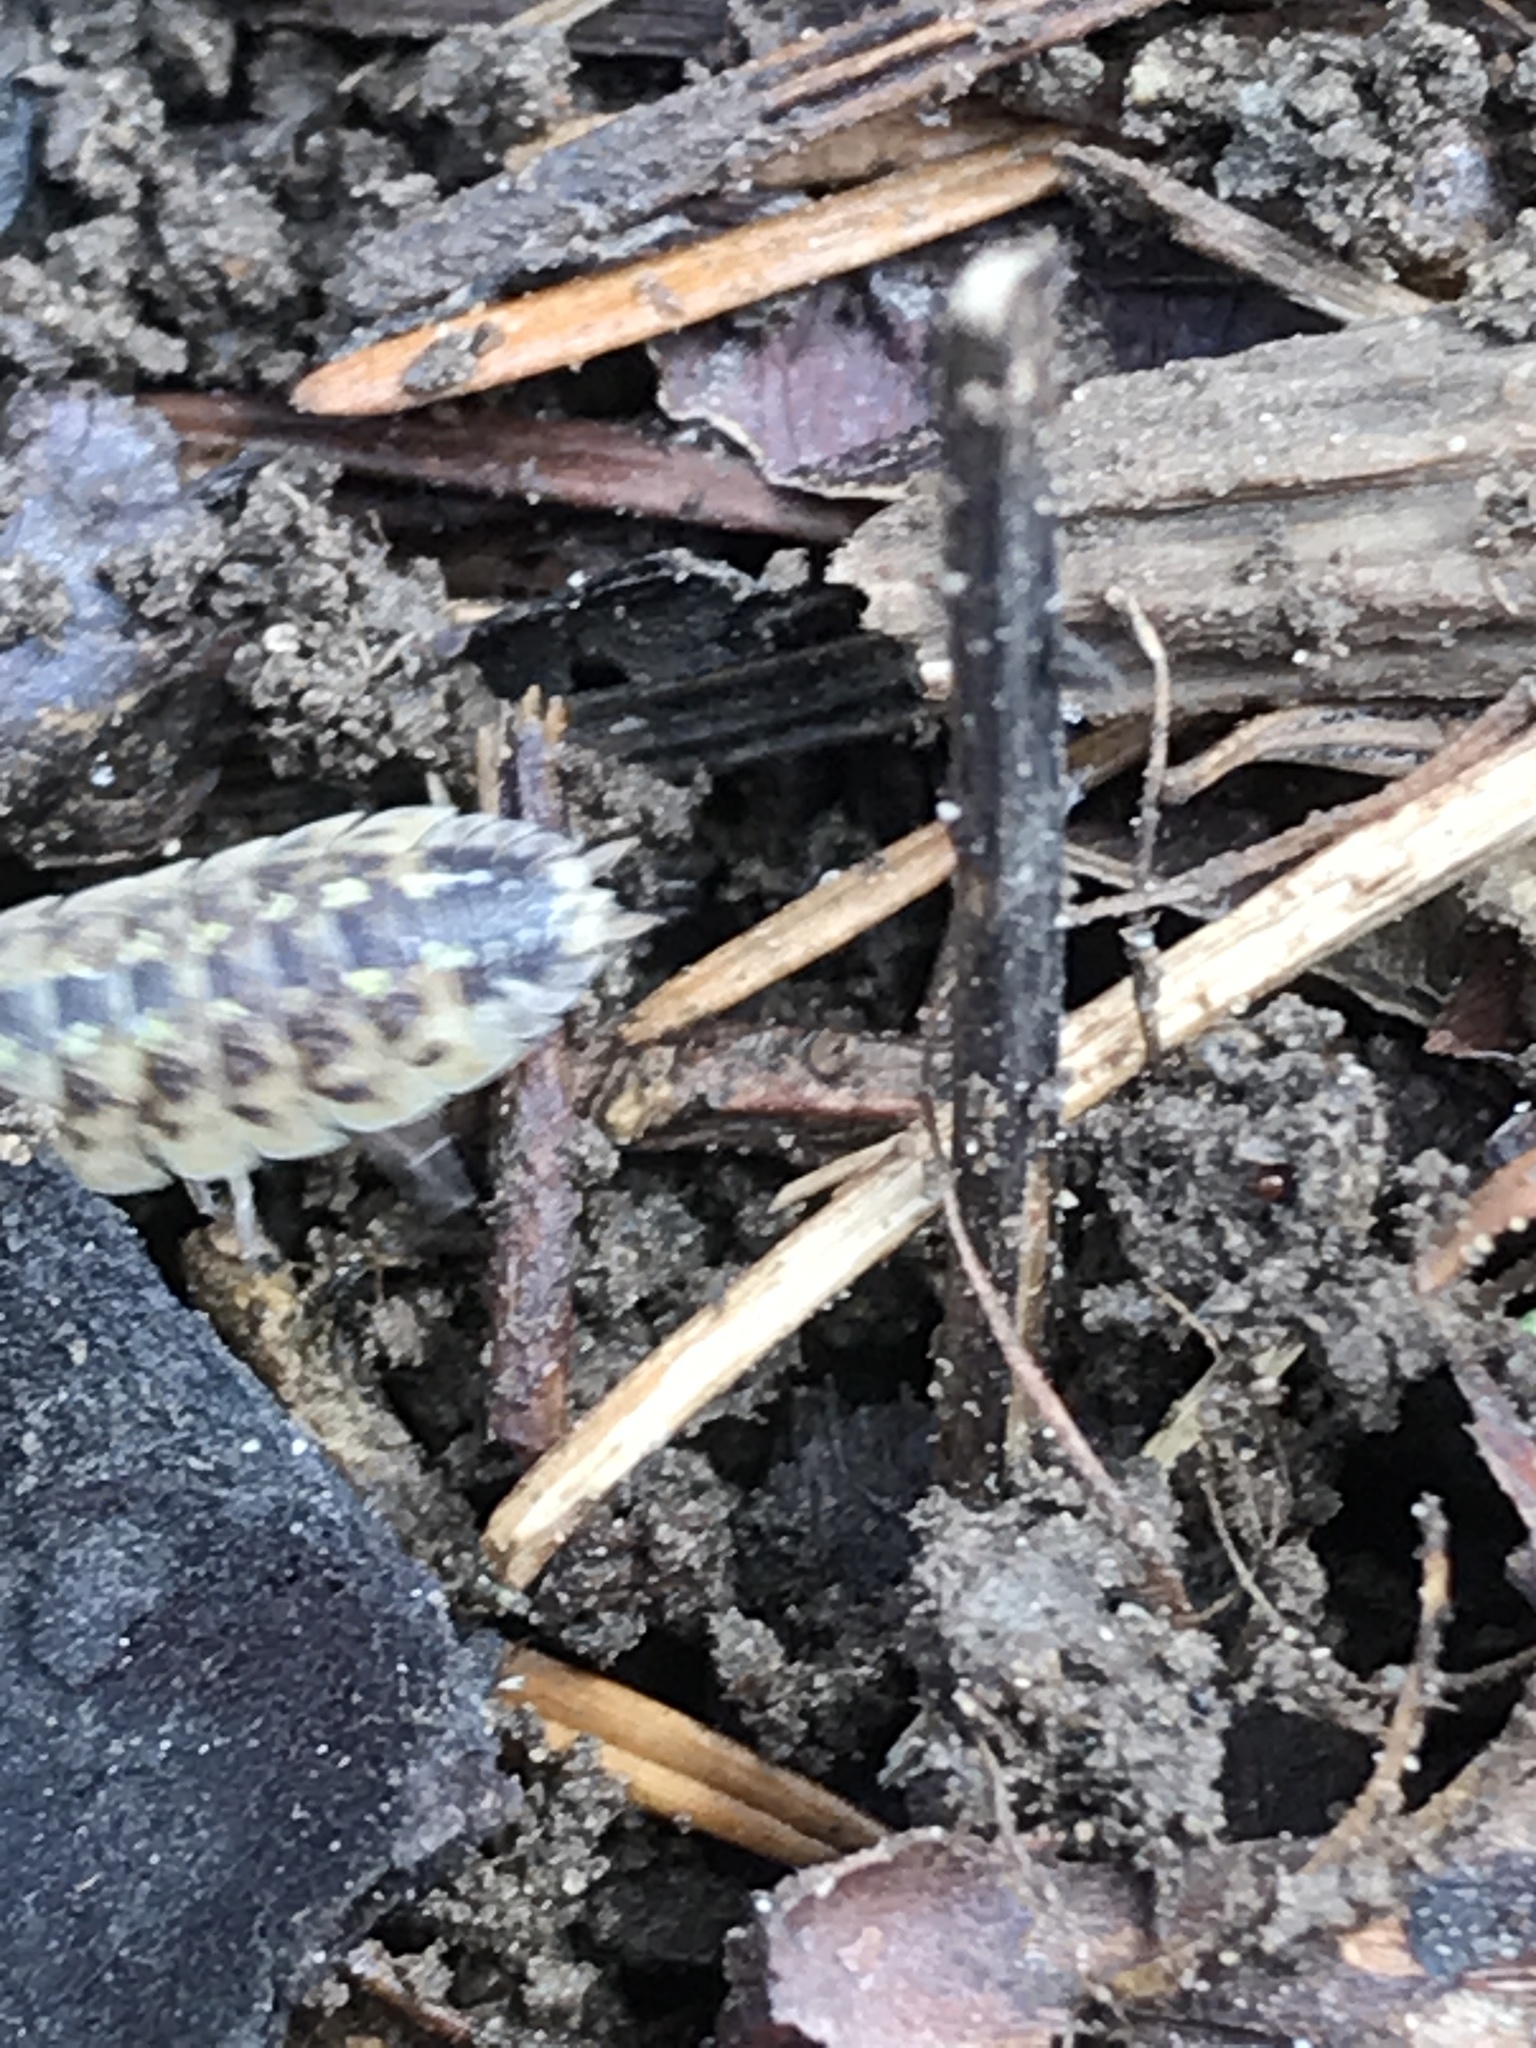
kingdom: Animalia
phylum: Arthropoda
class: Malacostraca
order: Isopoda
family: Porcellionidae
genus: Porcellio
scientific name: Porcellio spinicornis
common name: Painted woodlouse
